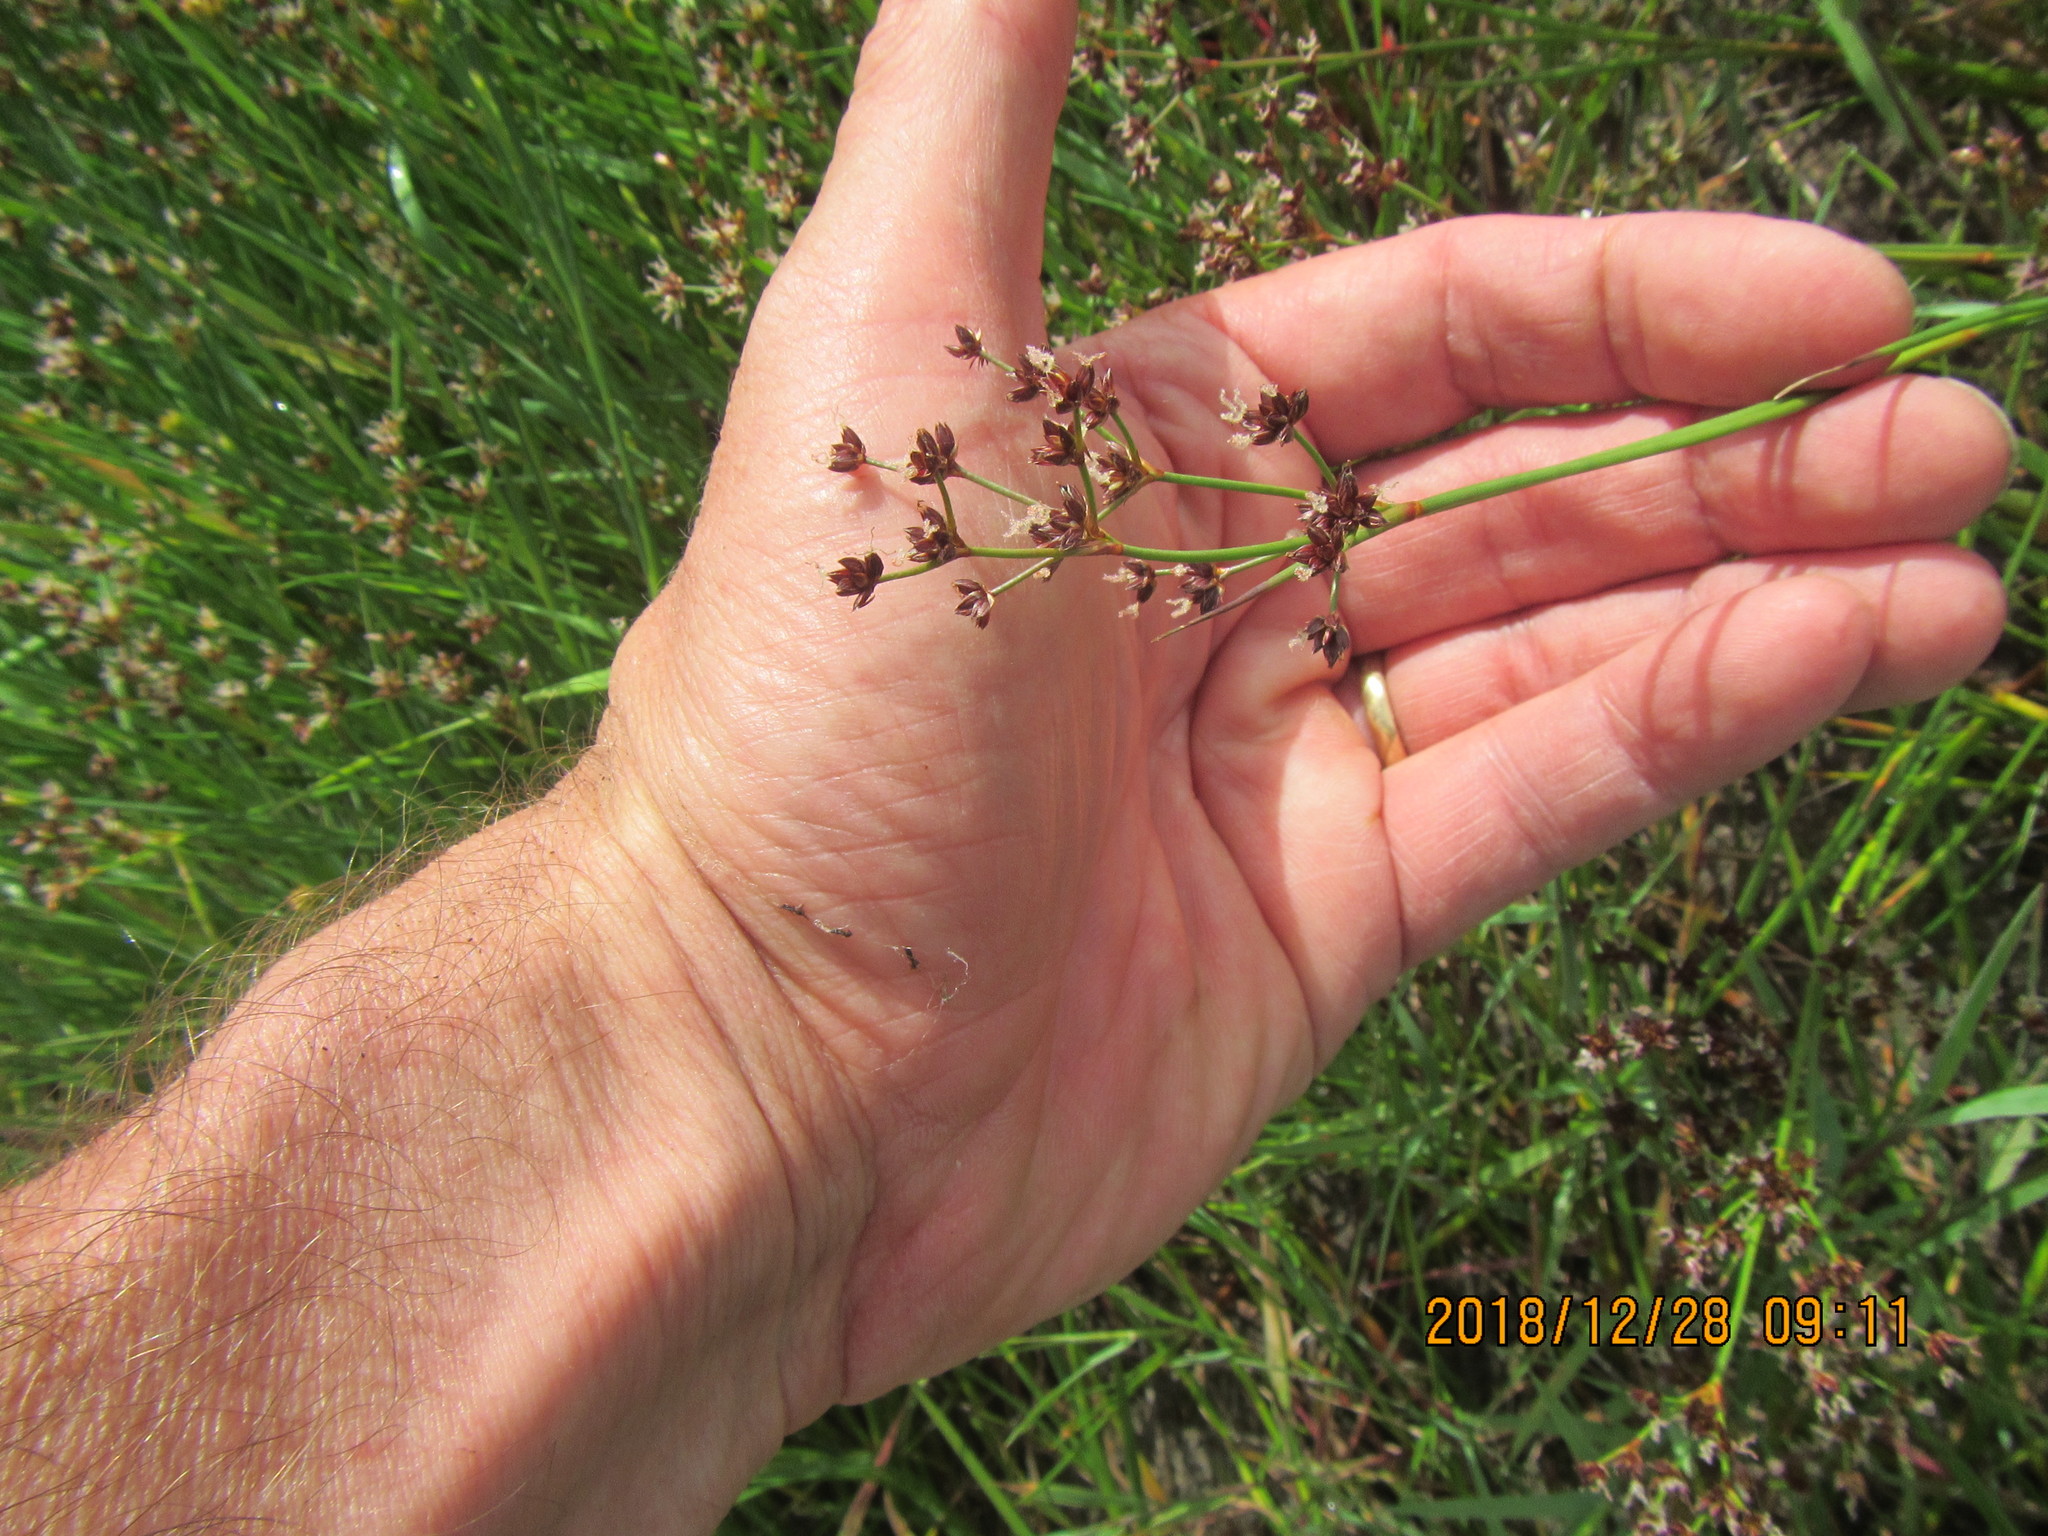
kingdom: Plantae
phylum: Tracheophyta
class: Liliopsida
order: Poales
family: Juncaceae
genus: Juncus
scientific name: Juncus articulatus
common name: Jointed rush
